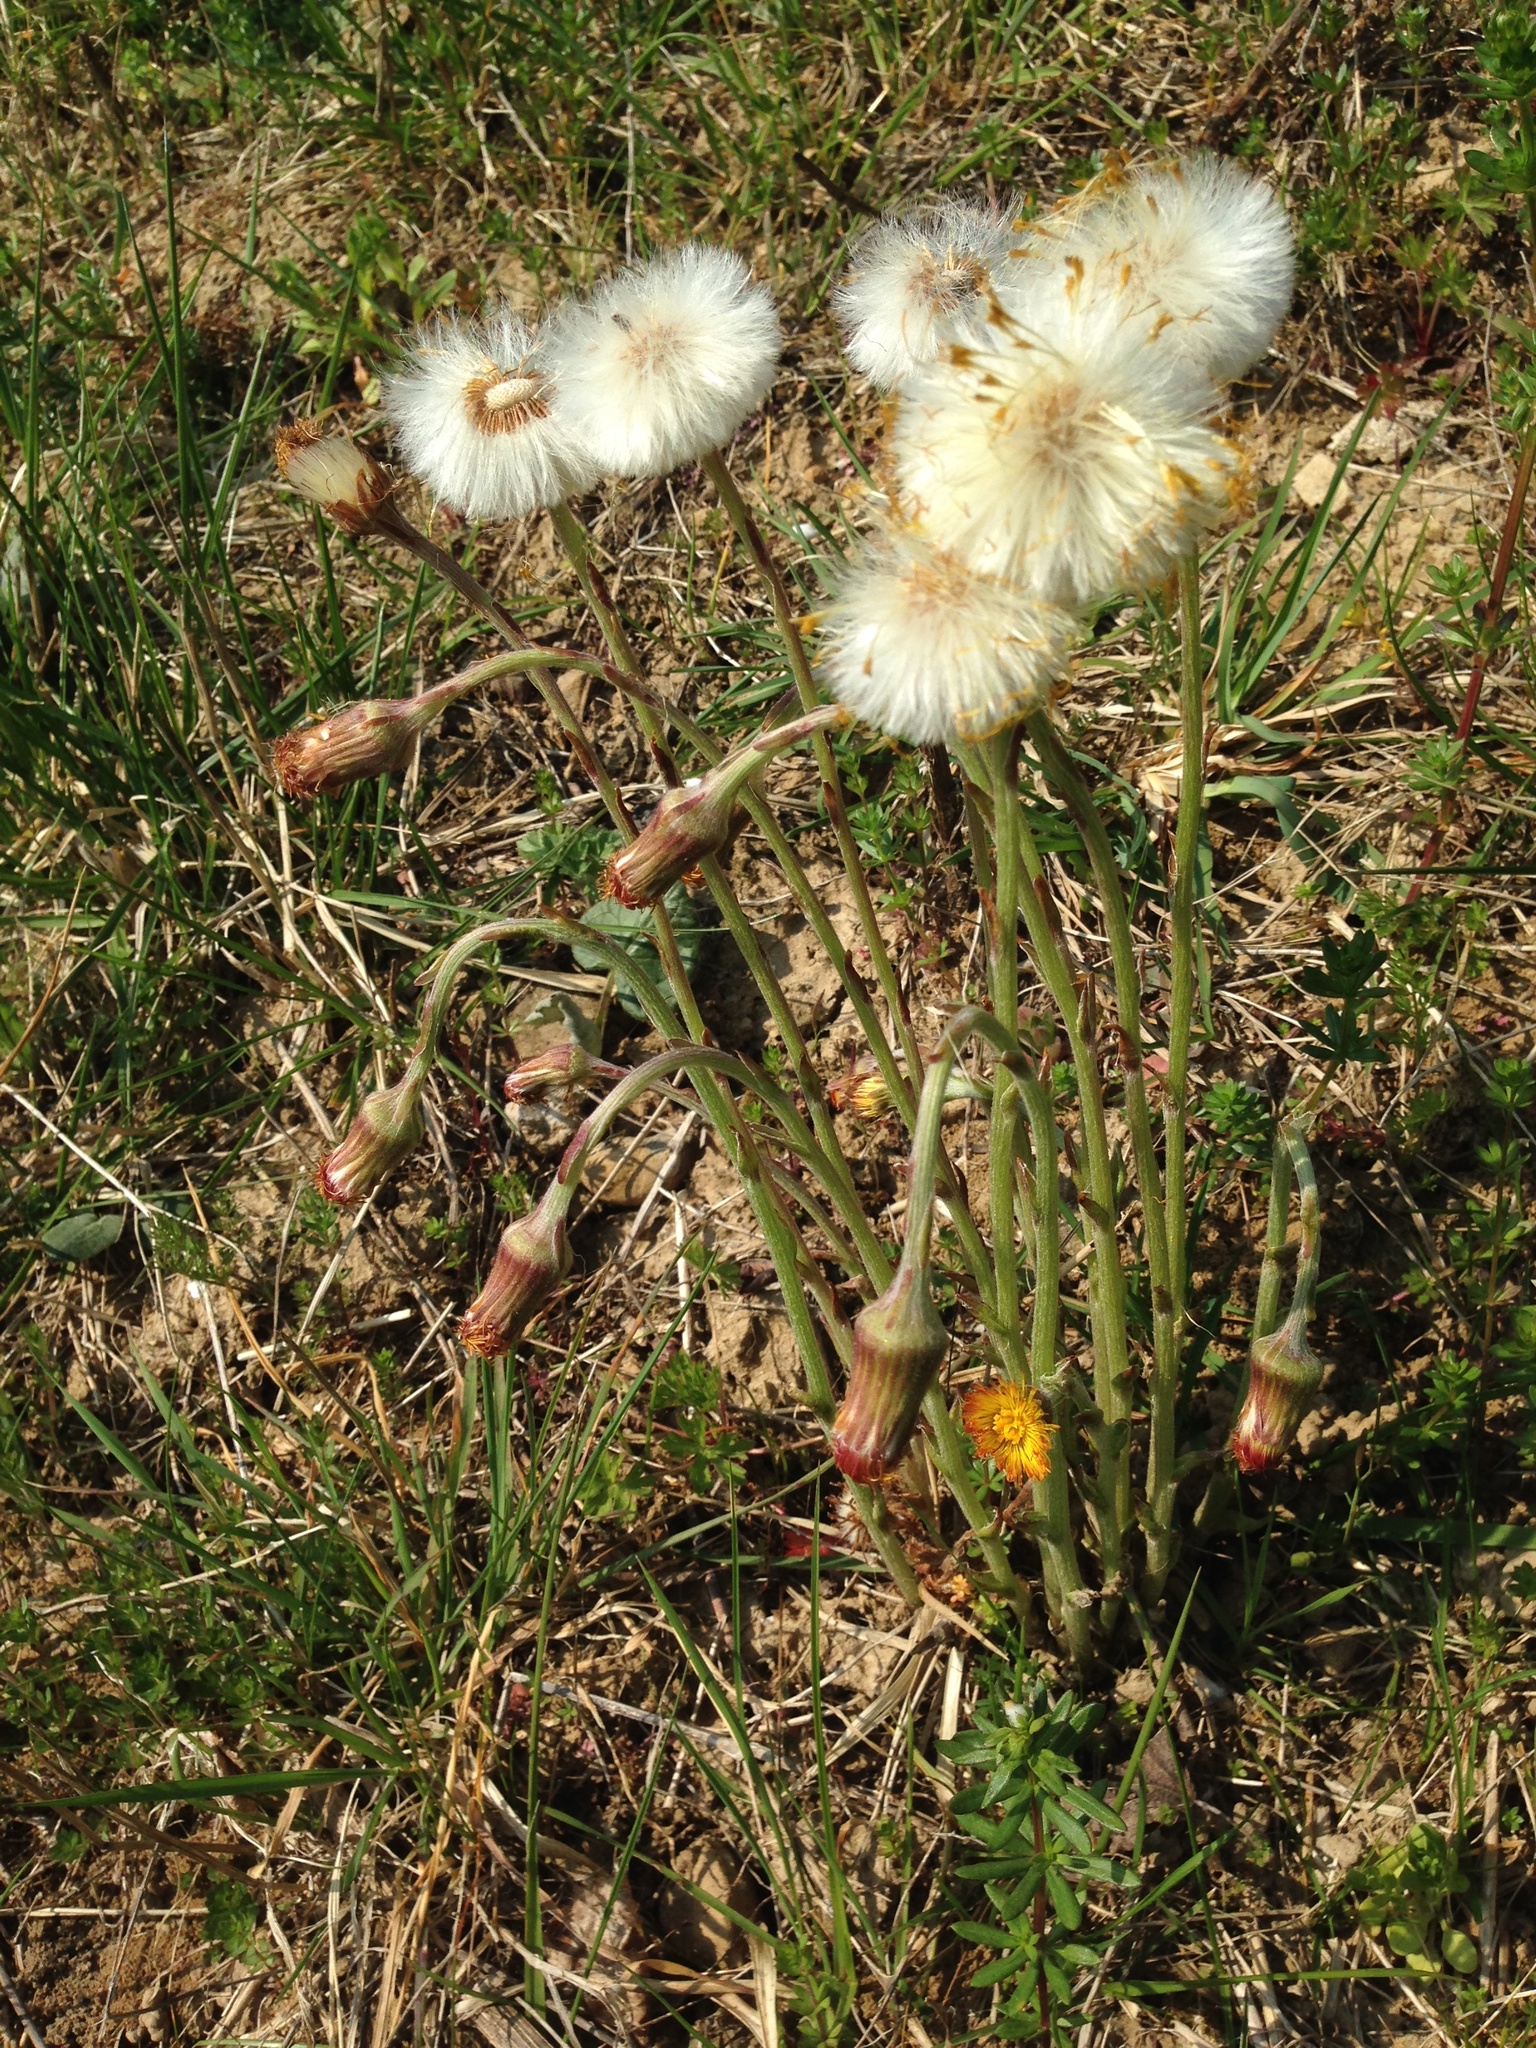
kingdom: Plantae
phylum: Tracheophyta
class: Magnoliopsida
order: Asterales
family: Asteraceae
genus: Tussilago
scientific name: Tussilago farfara
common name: Coltsfoot
